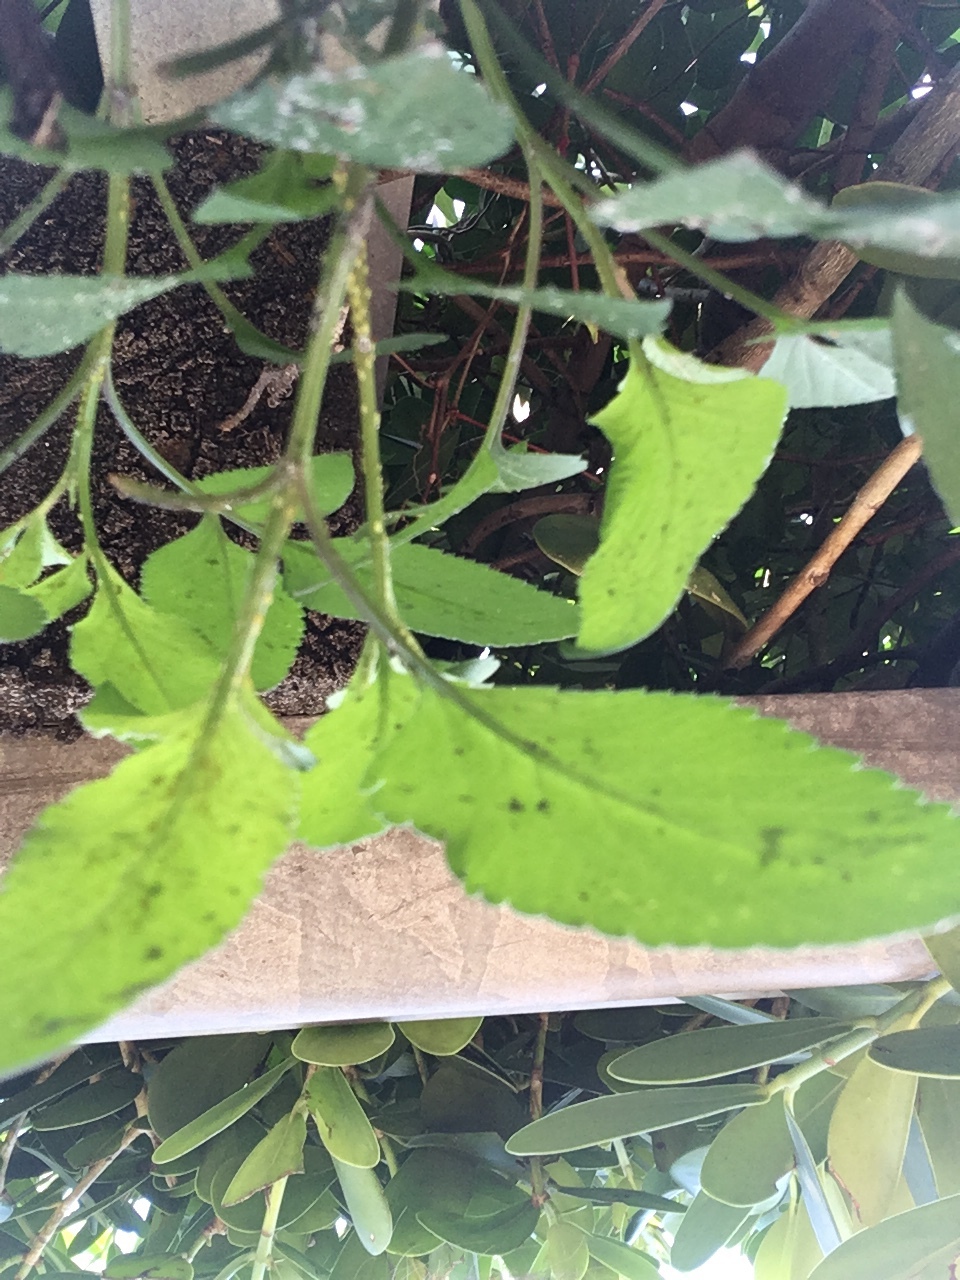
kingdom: Plantae
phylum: Tracheophyta
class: Magnoliopsida
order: Asterales
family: Asteraceae
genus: Bidens
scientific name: Bidens alba
